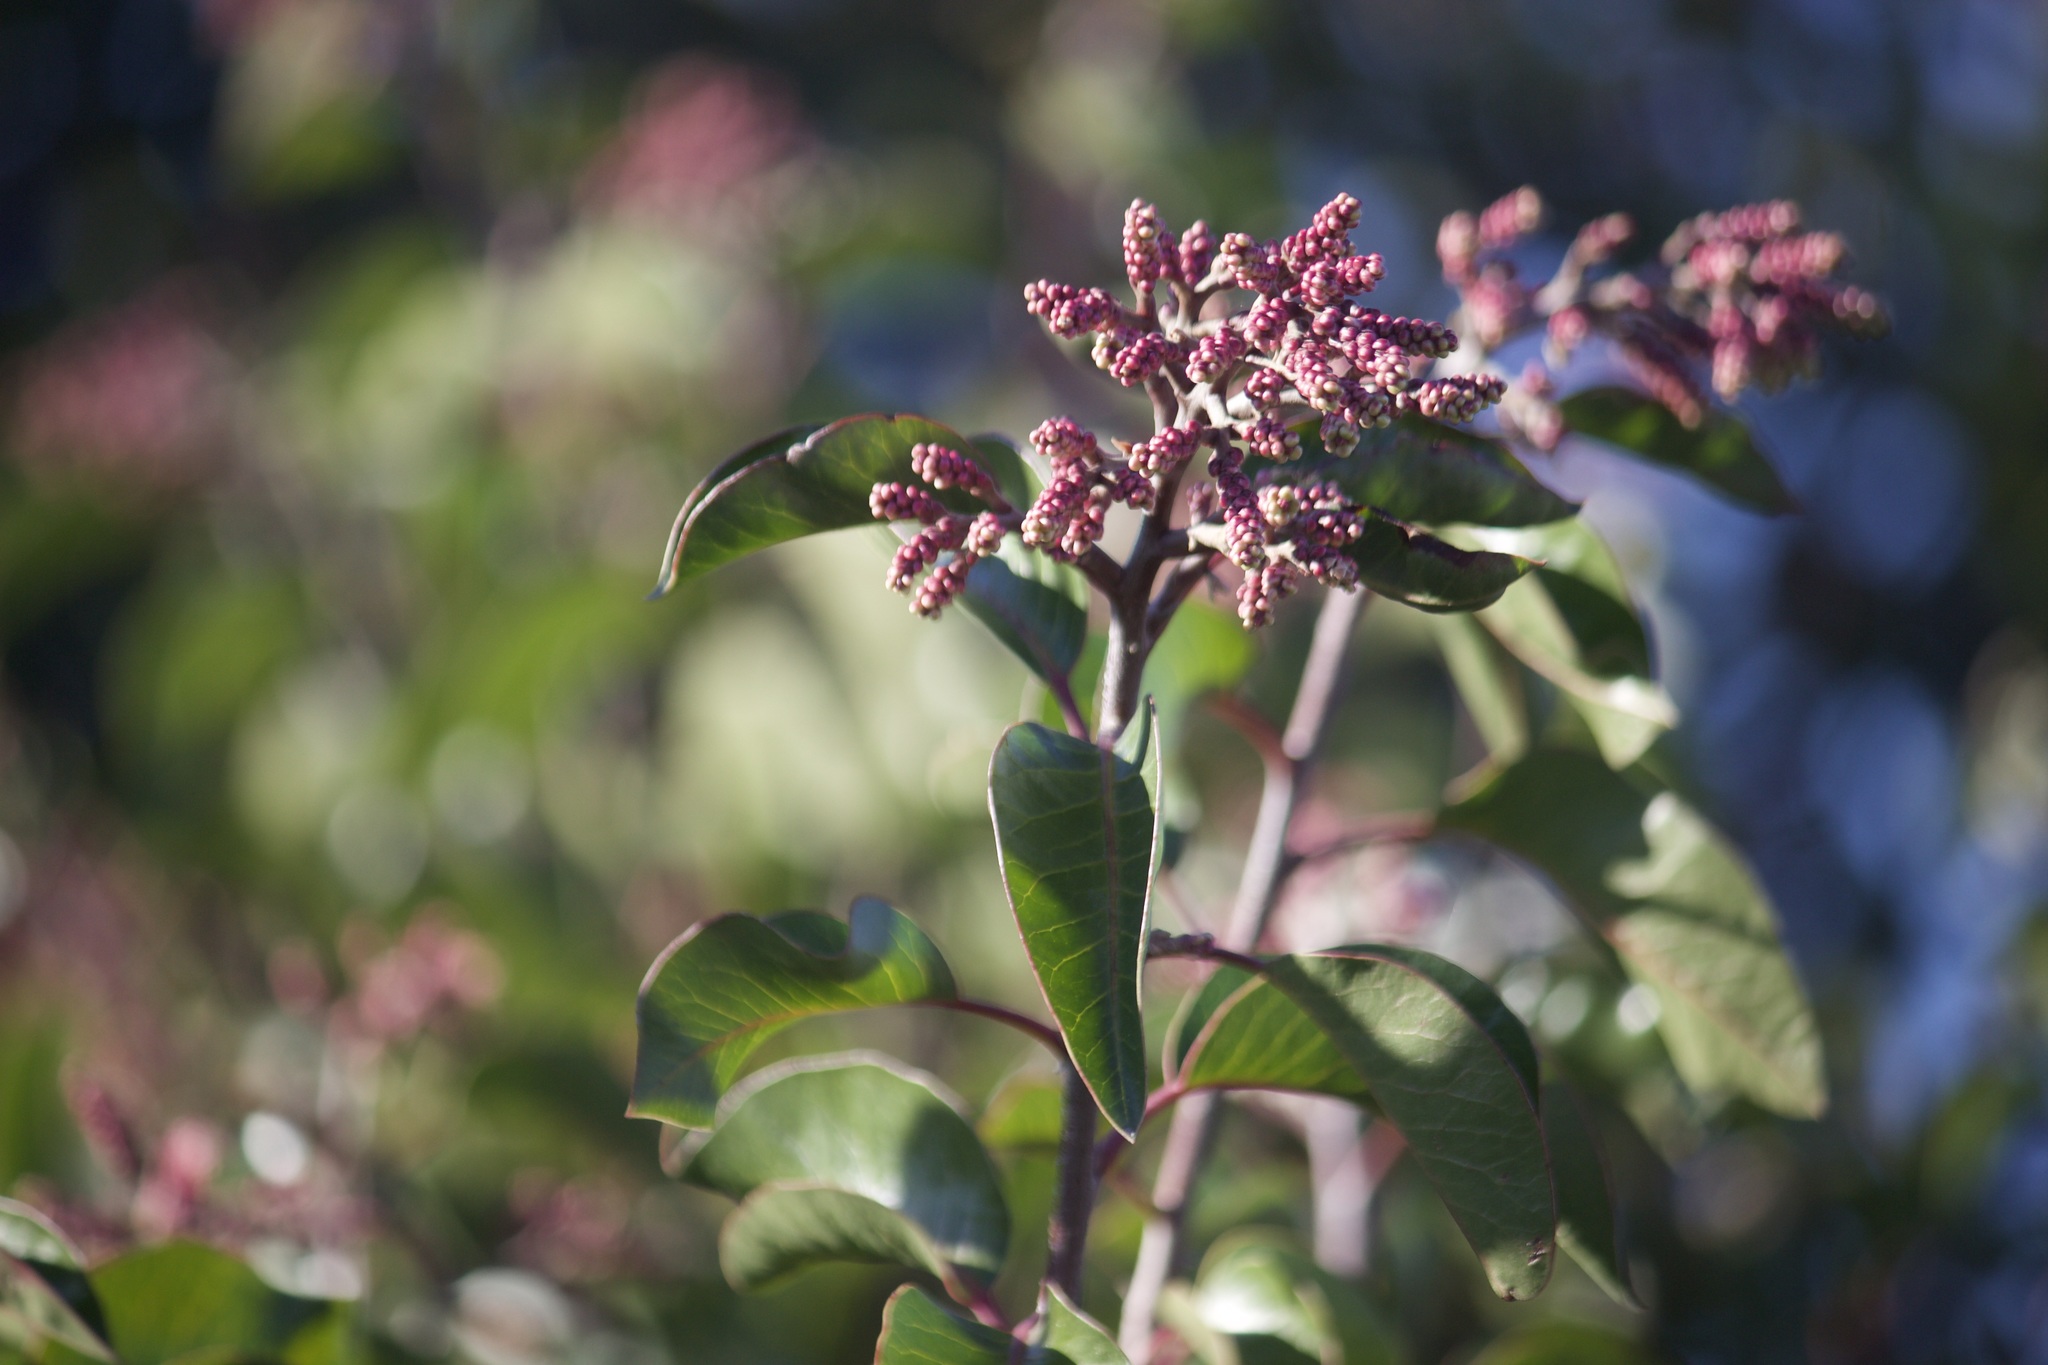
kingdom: Plantae
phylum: Tracheophyta
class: Magnoliopsida
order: Sapindales
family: Anacardiaceae
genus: Rhus
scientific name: Rhus ovata
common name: Sugar sumac
